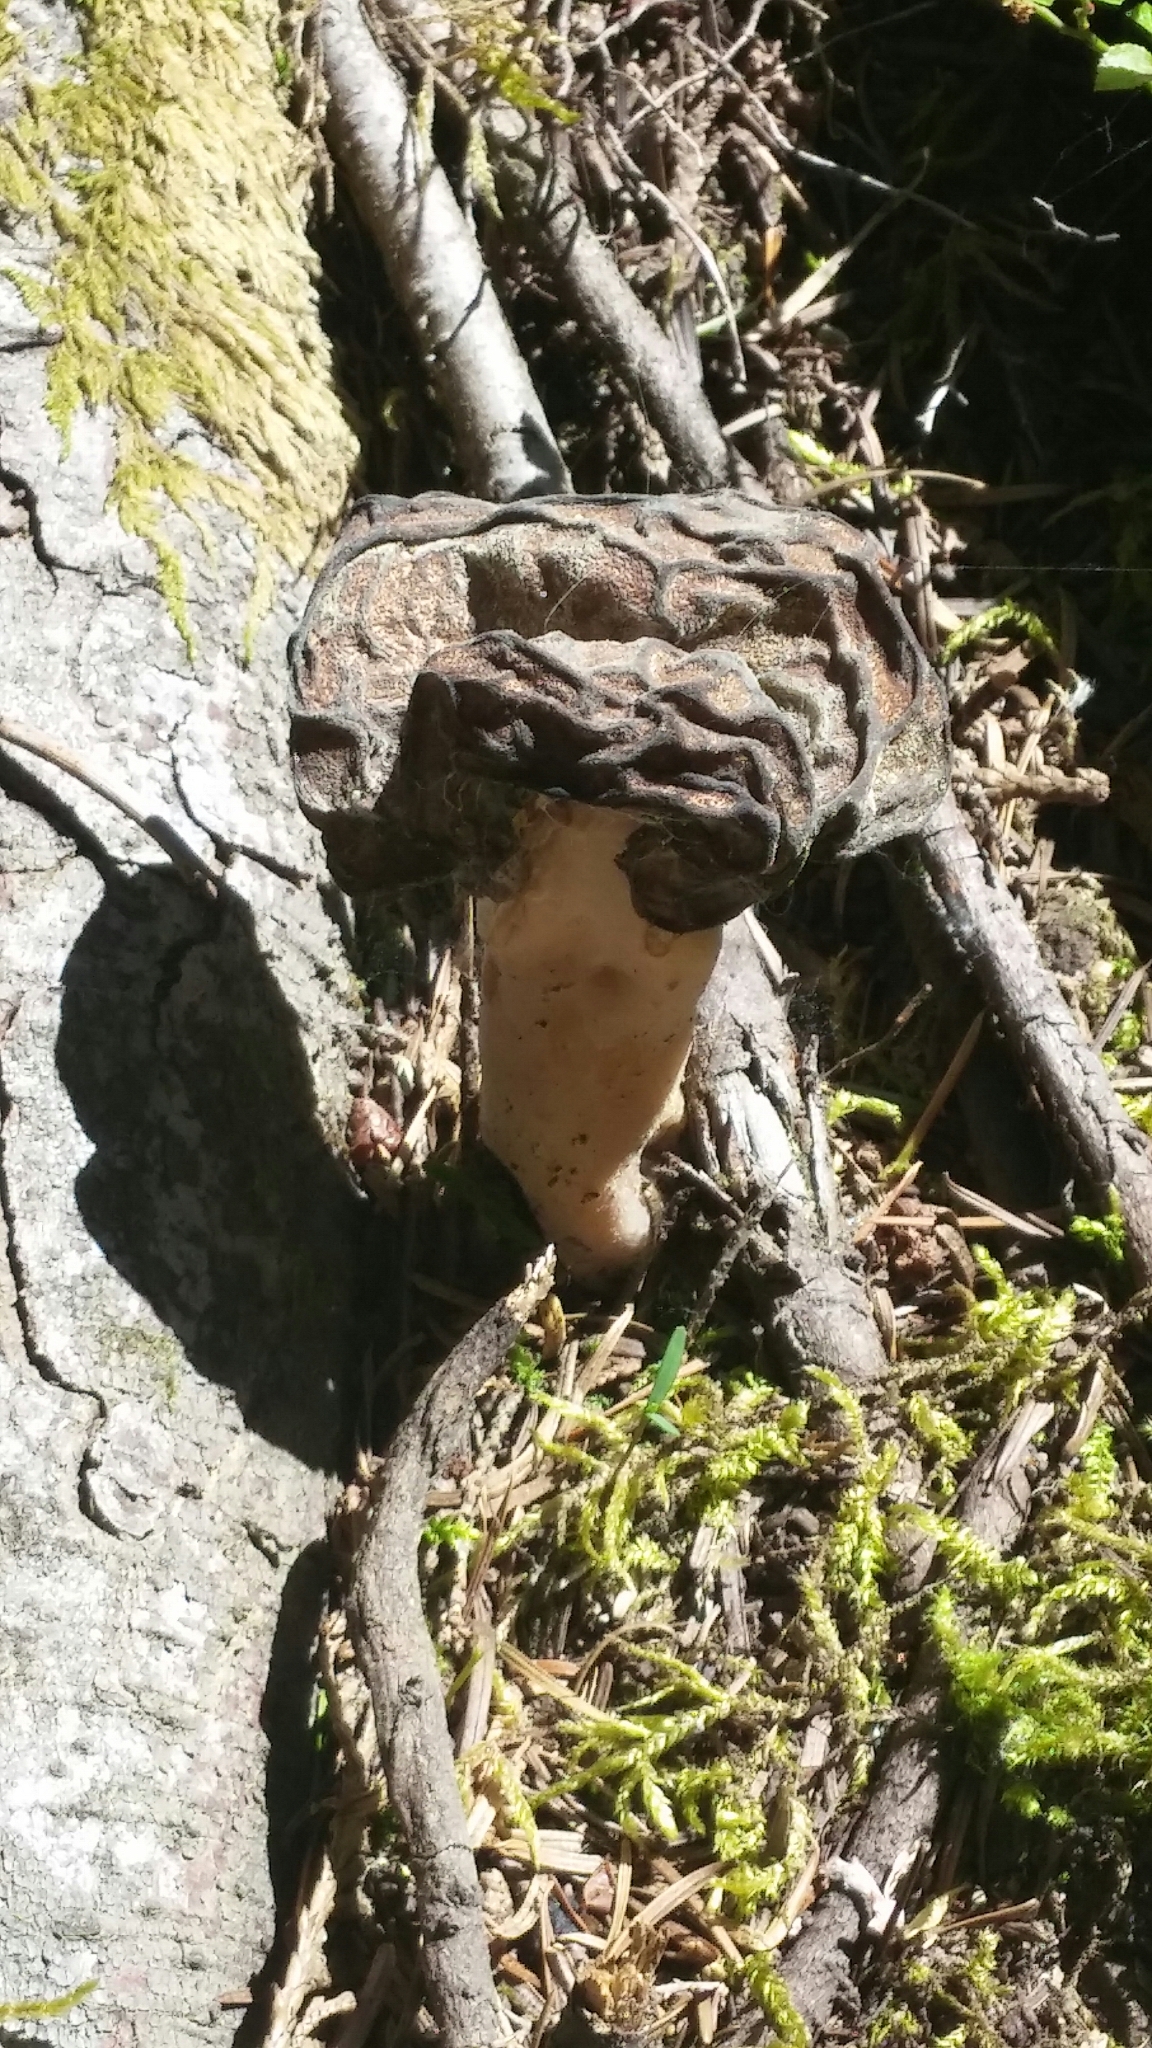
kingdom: Fungi
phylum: Ascomycota
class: Pezizomycetes
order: Pezizales
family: Discinaceae
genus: Gyromitra
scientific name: Gyromitra esculenta
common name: False morel
